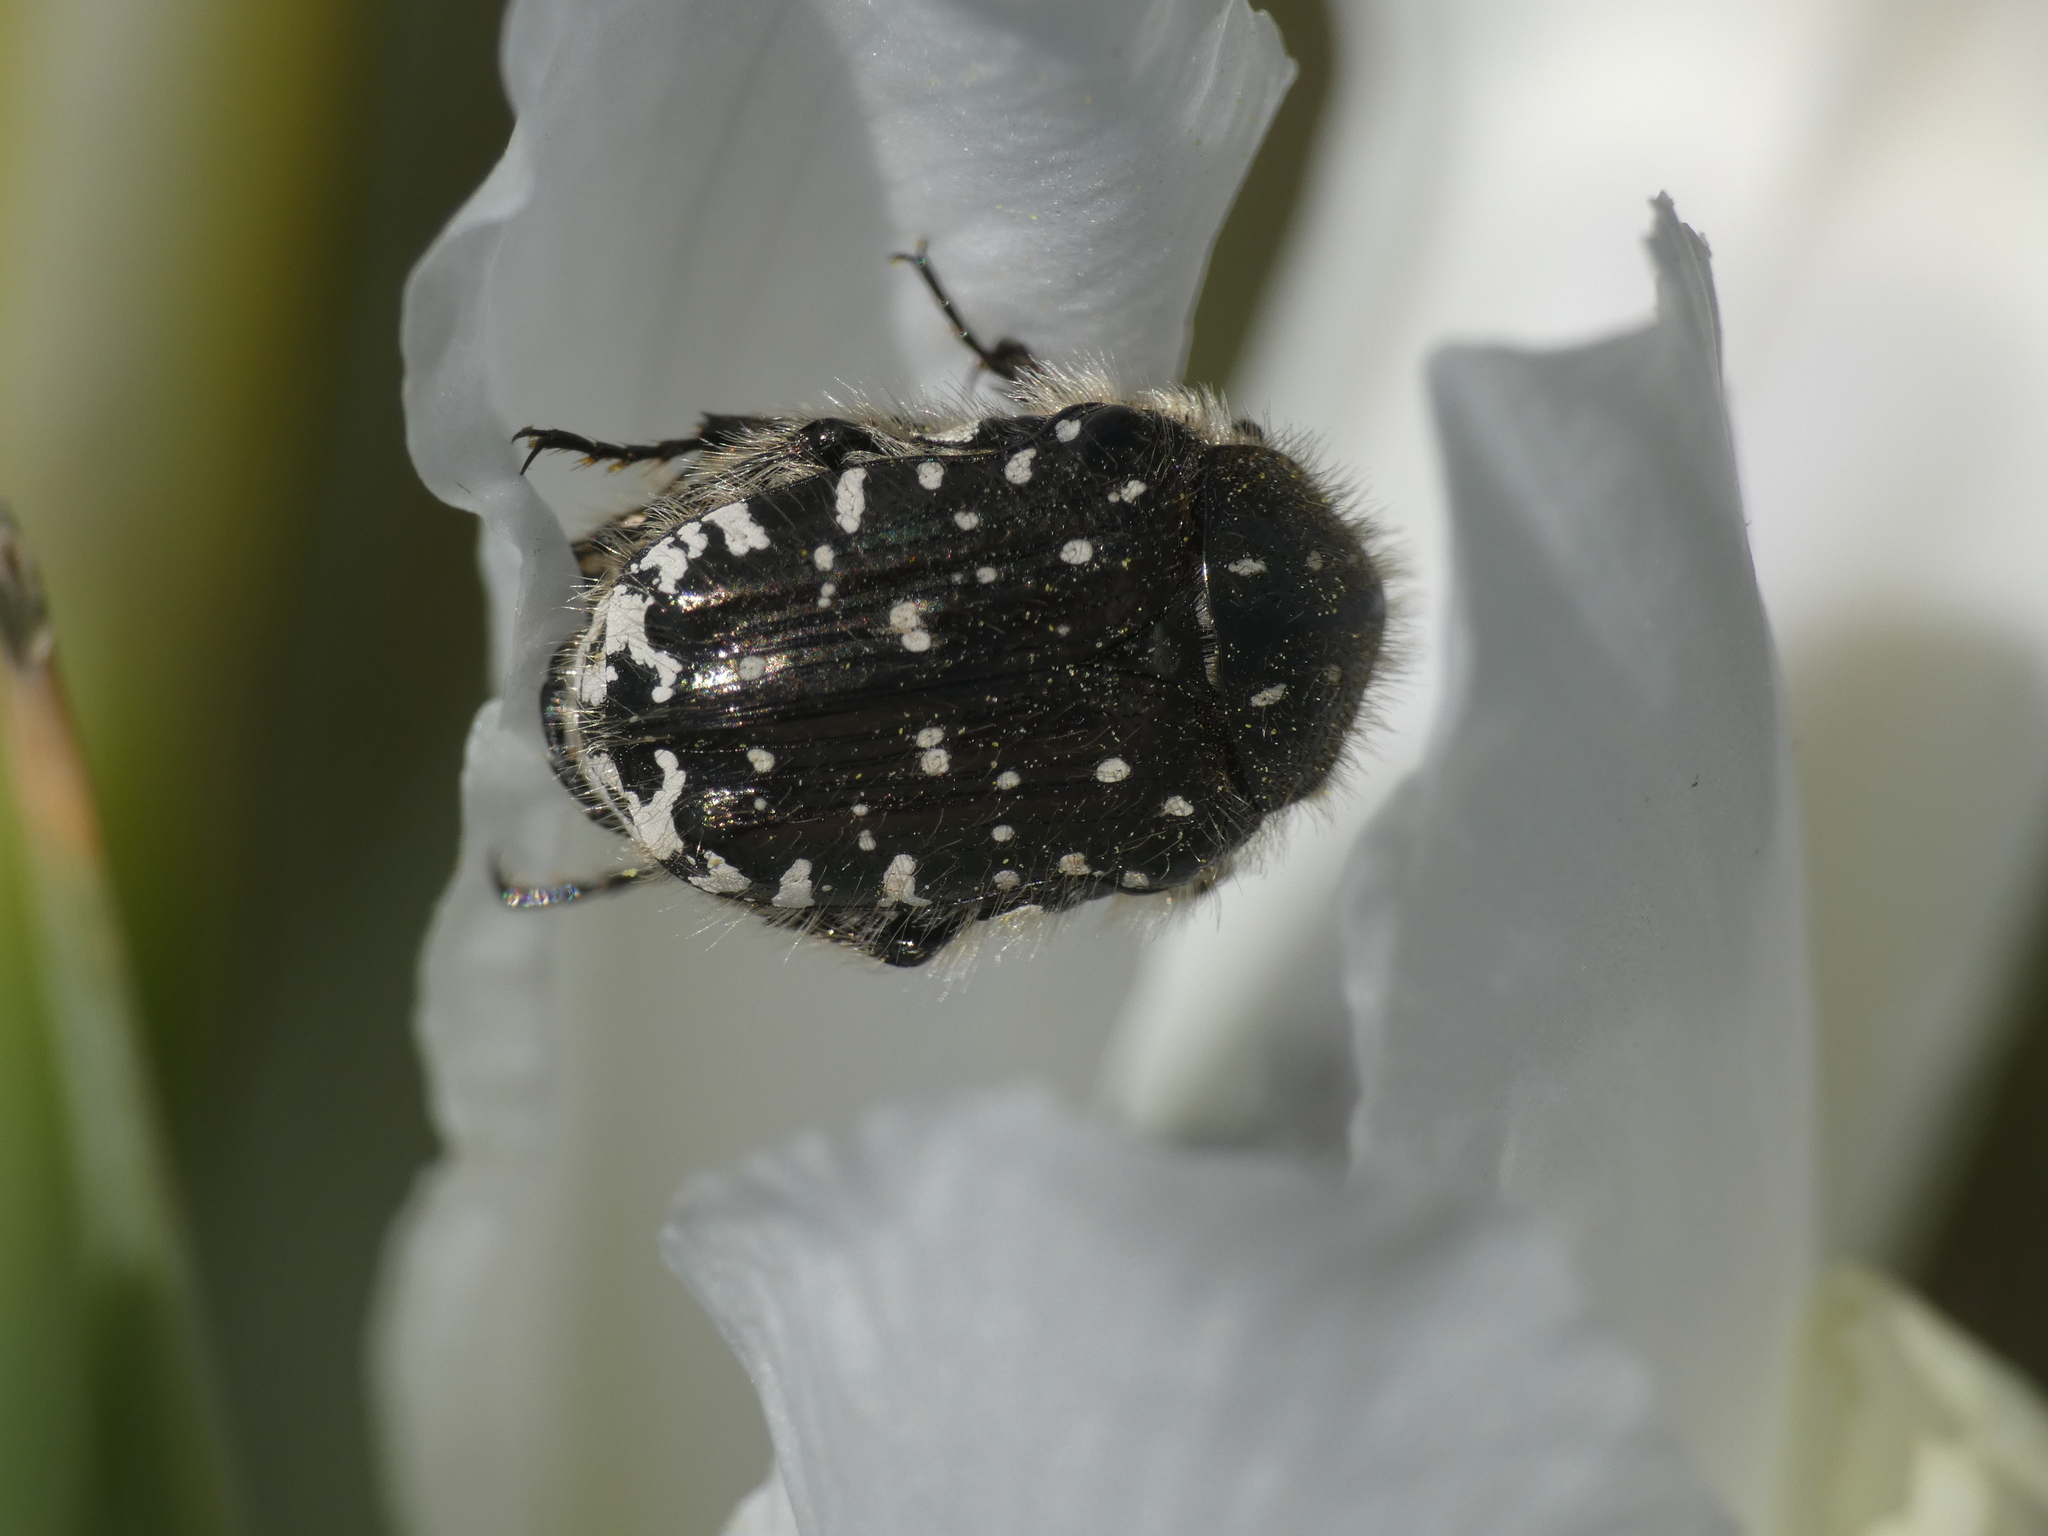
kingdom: Animalia
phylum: Arthropoda
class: Insecta
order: Coleoptera
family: Scarabaeidae
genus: Oxythyrea
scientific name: Oxythyrea funesta
